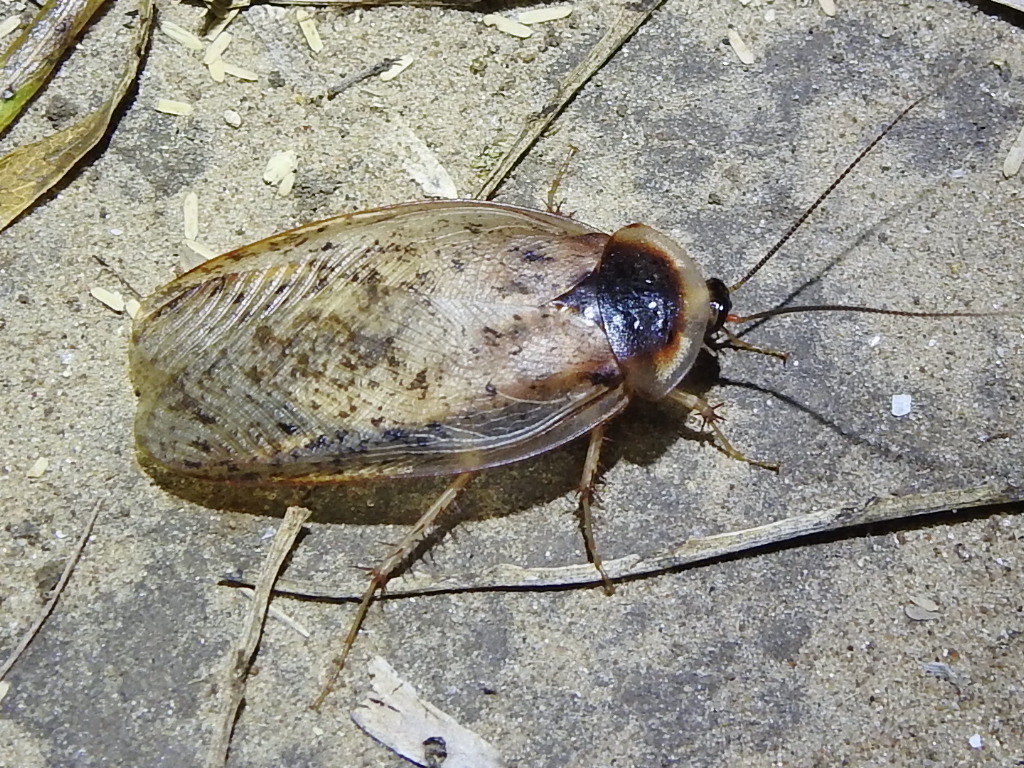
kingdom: Animalia
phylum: Arthropoda
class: Insecta
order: Blattodea
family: Corydiidae
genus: Arenivaga
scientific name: Arenivaga bolliana
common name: Boll's sand cockroach
